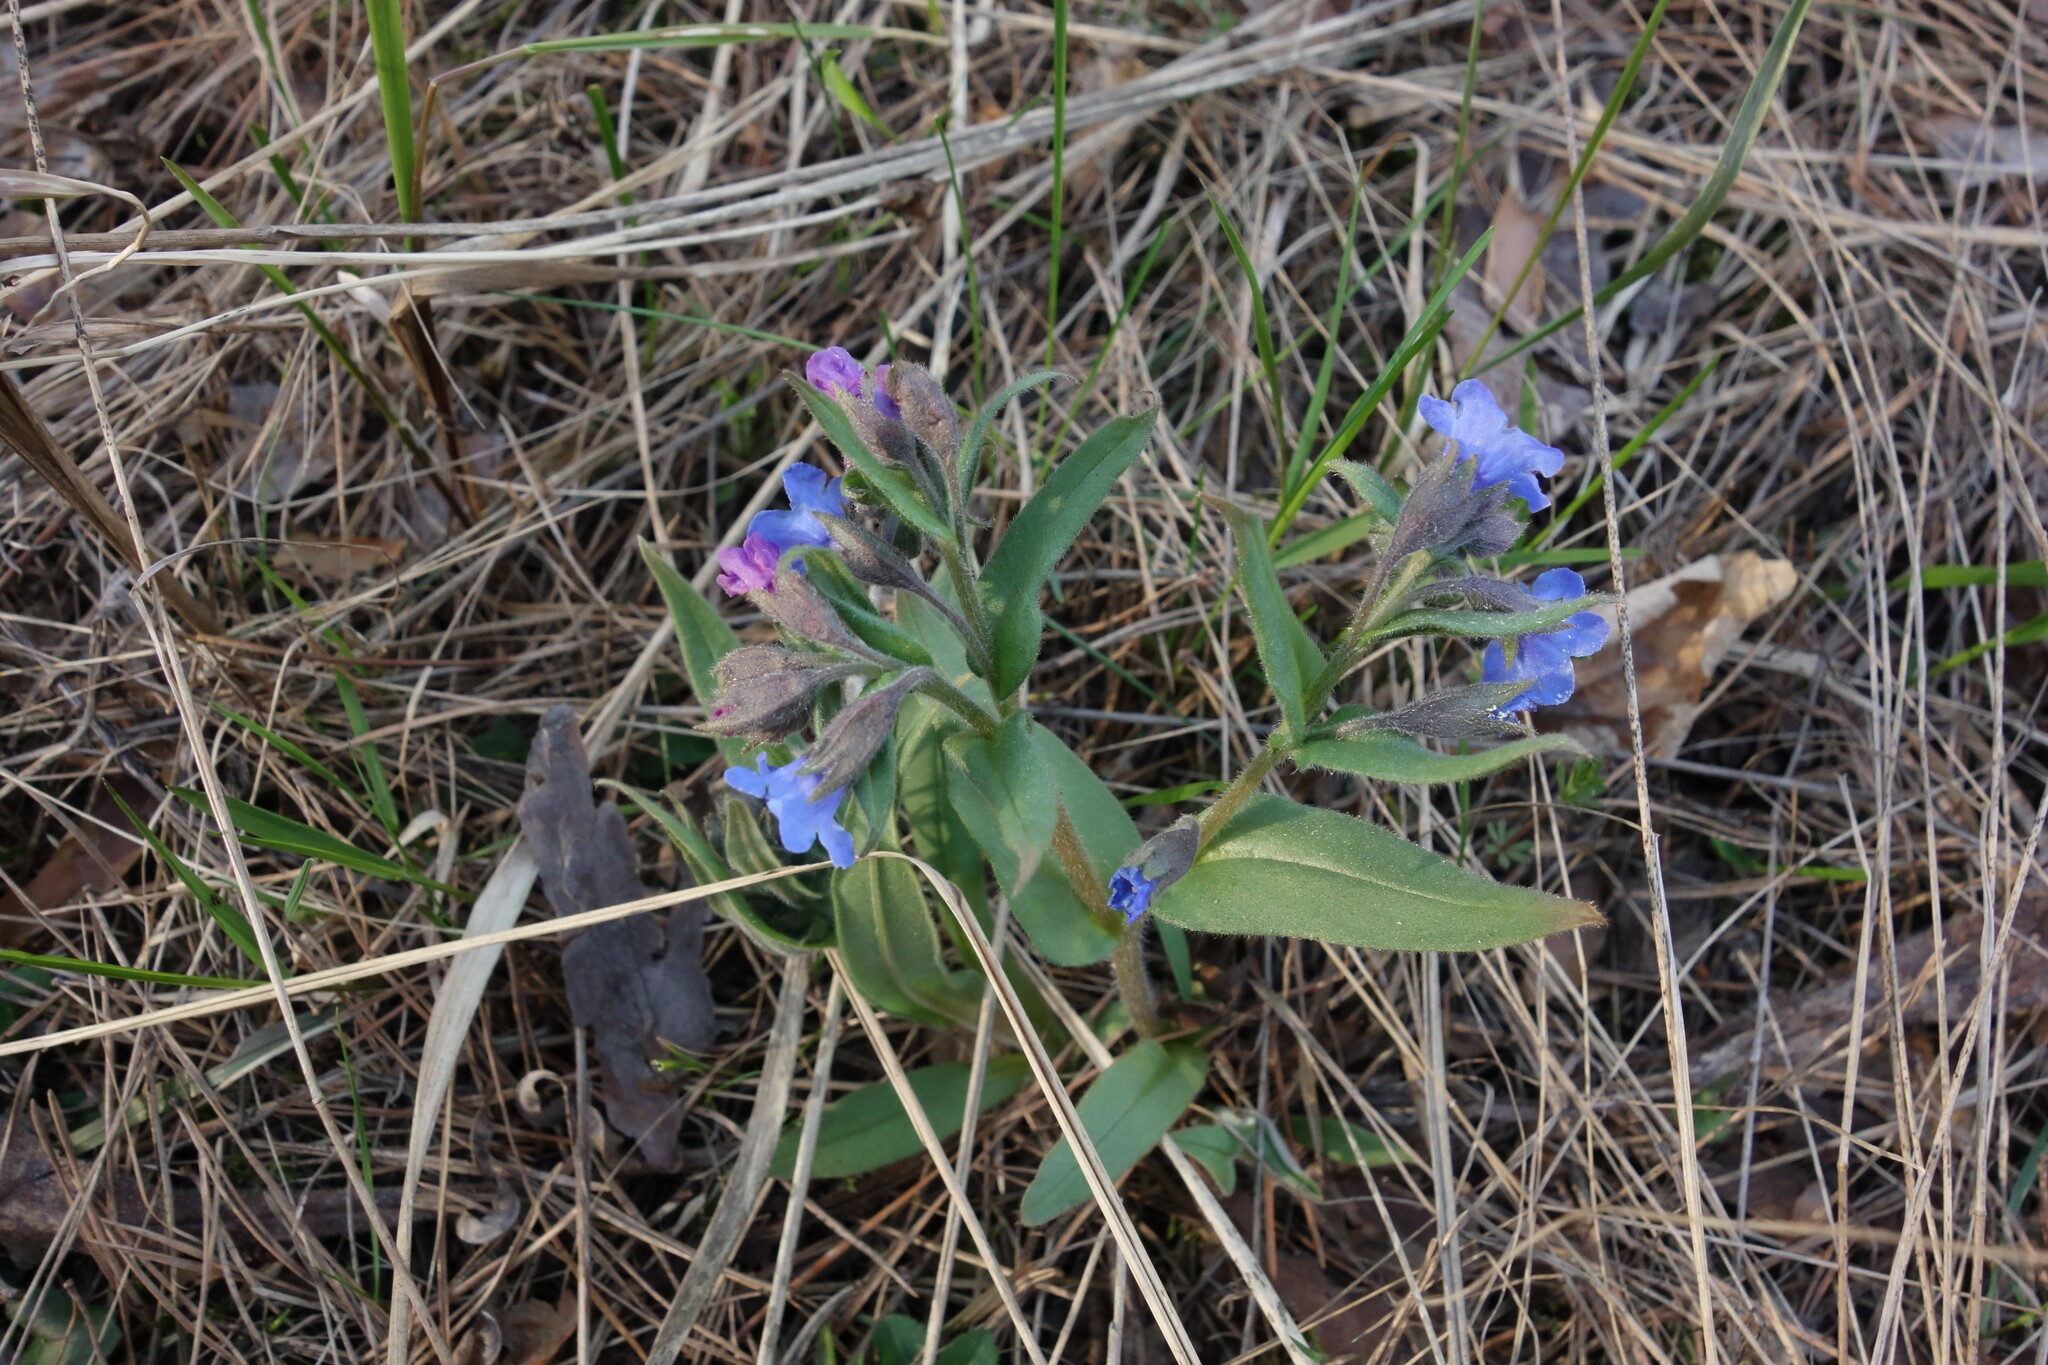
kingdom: Plantae
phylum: Tracheophyta
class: Magnoliopsida
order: Boraginales
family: Boraginaceae
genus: Pulmonaria
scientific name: Pulmonaria angustifolia
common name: Blue cowslip
